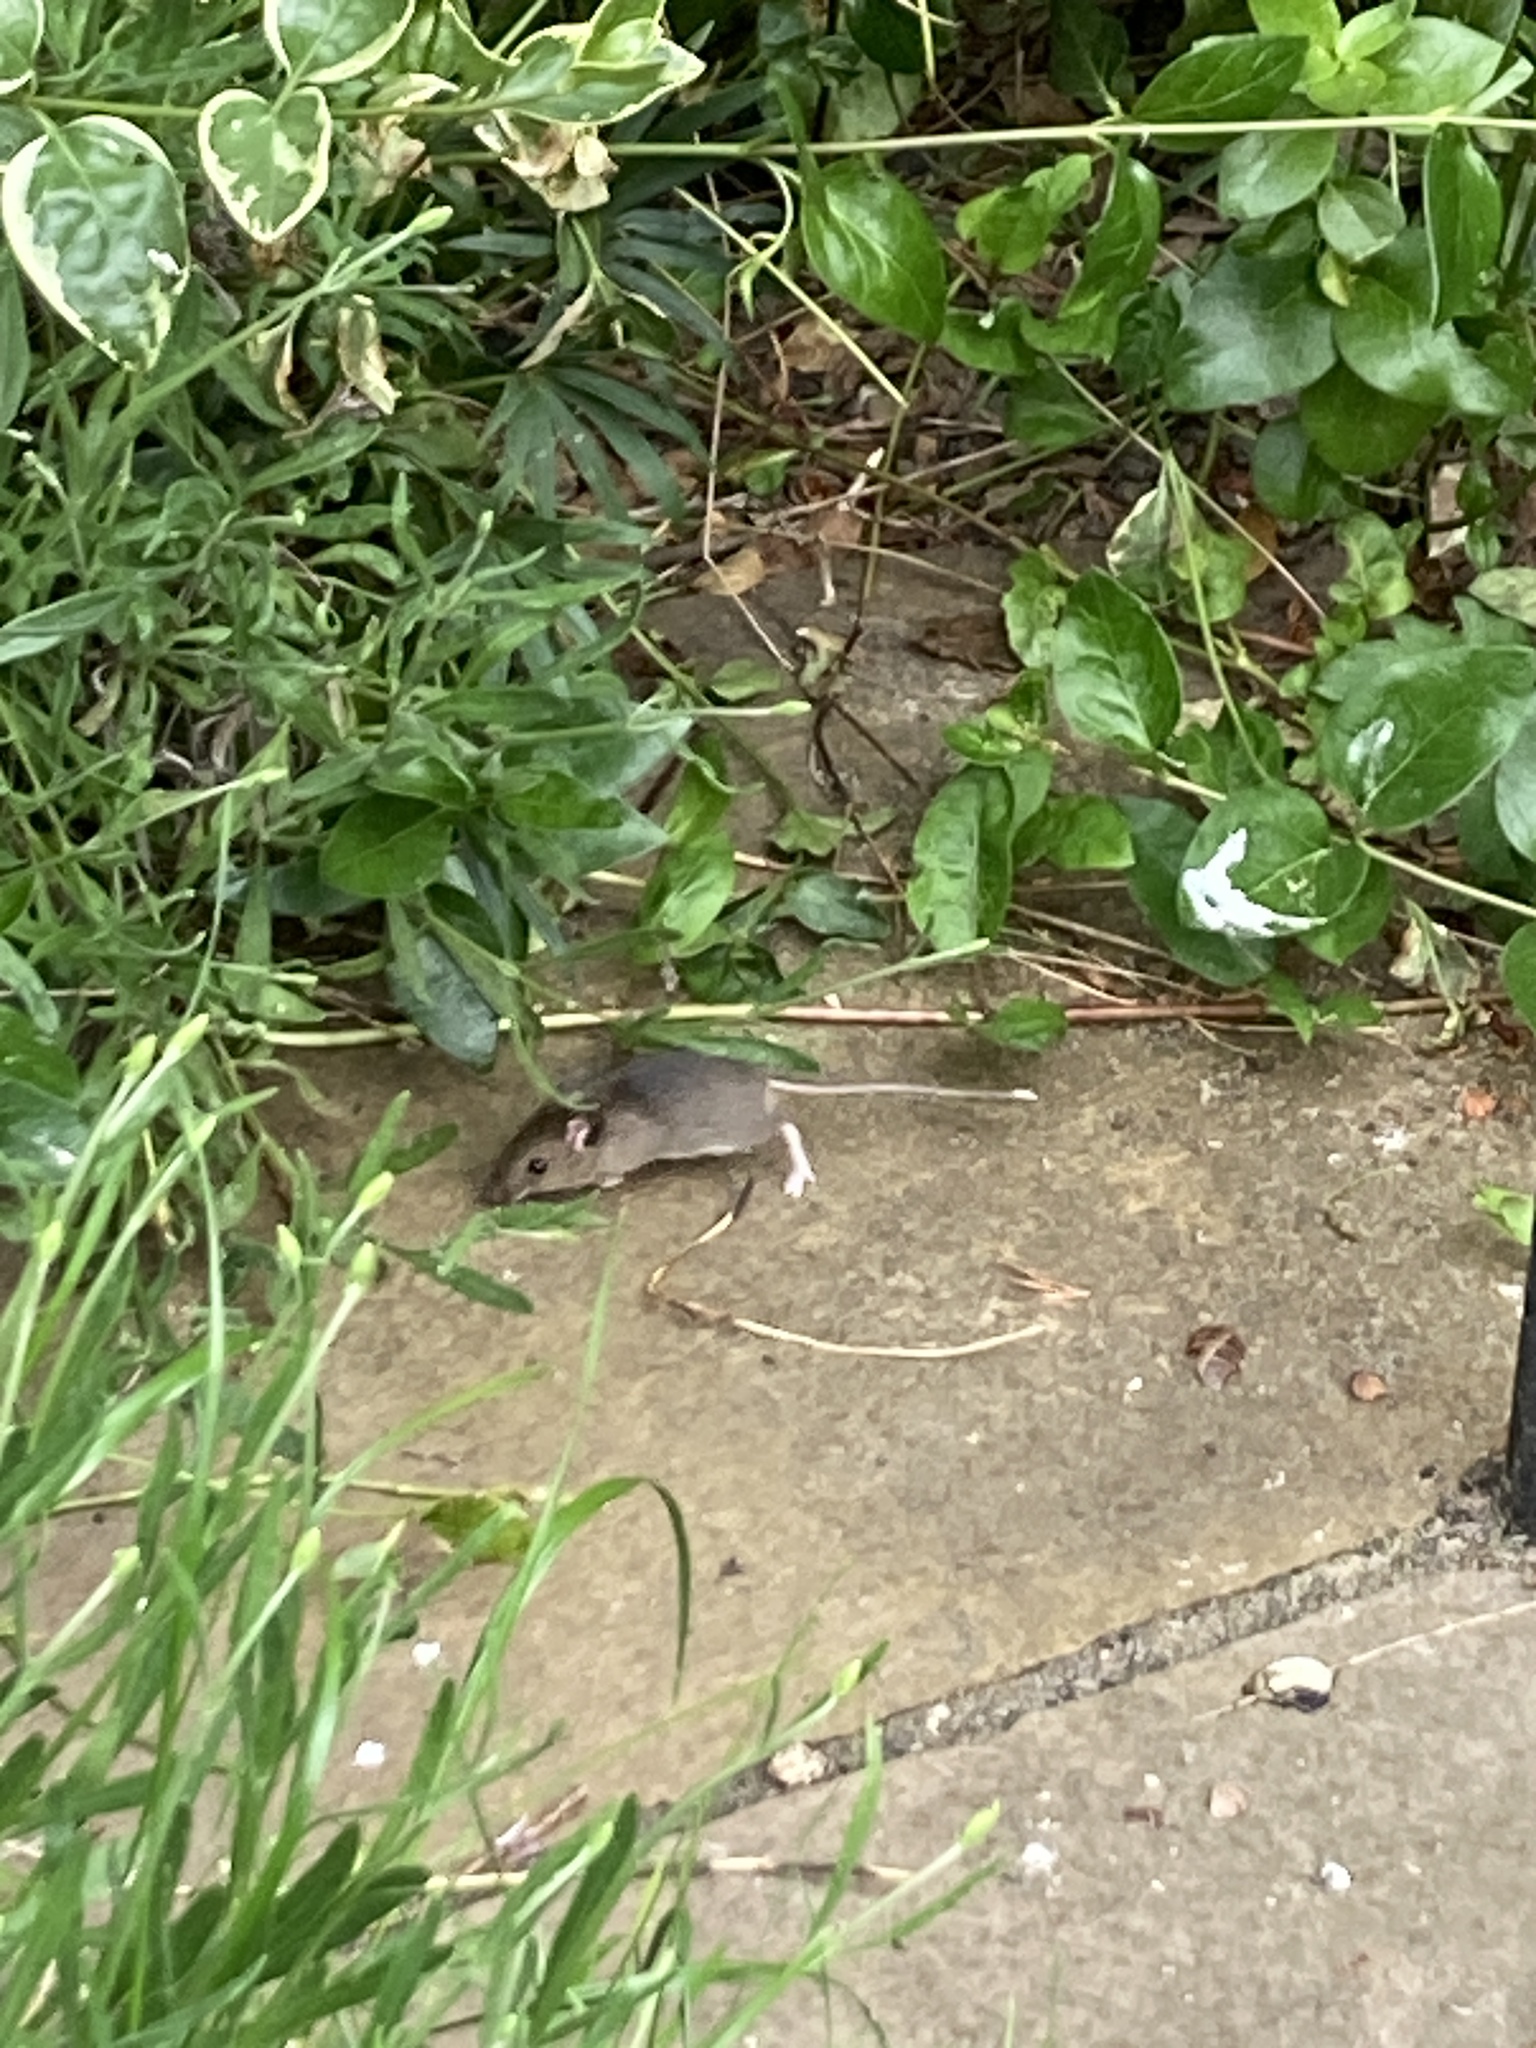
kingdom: Animalia
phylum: Chordata
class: Mammalia
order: Rodentia
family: Muridae
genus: Apodemus
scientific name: Apodemus sylvaticus
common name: Wood mouse
